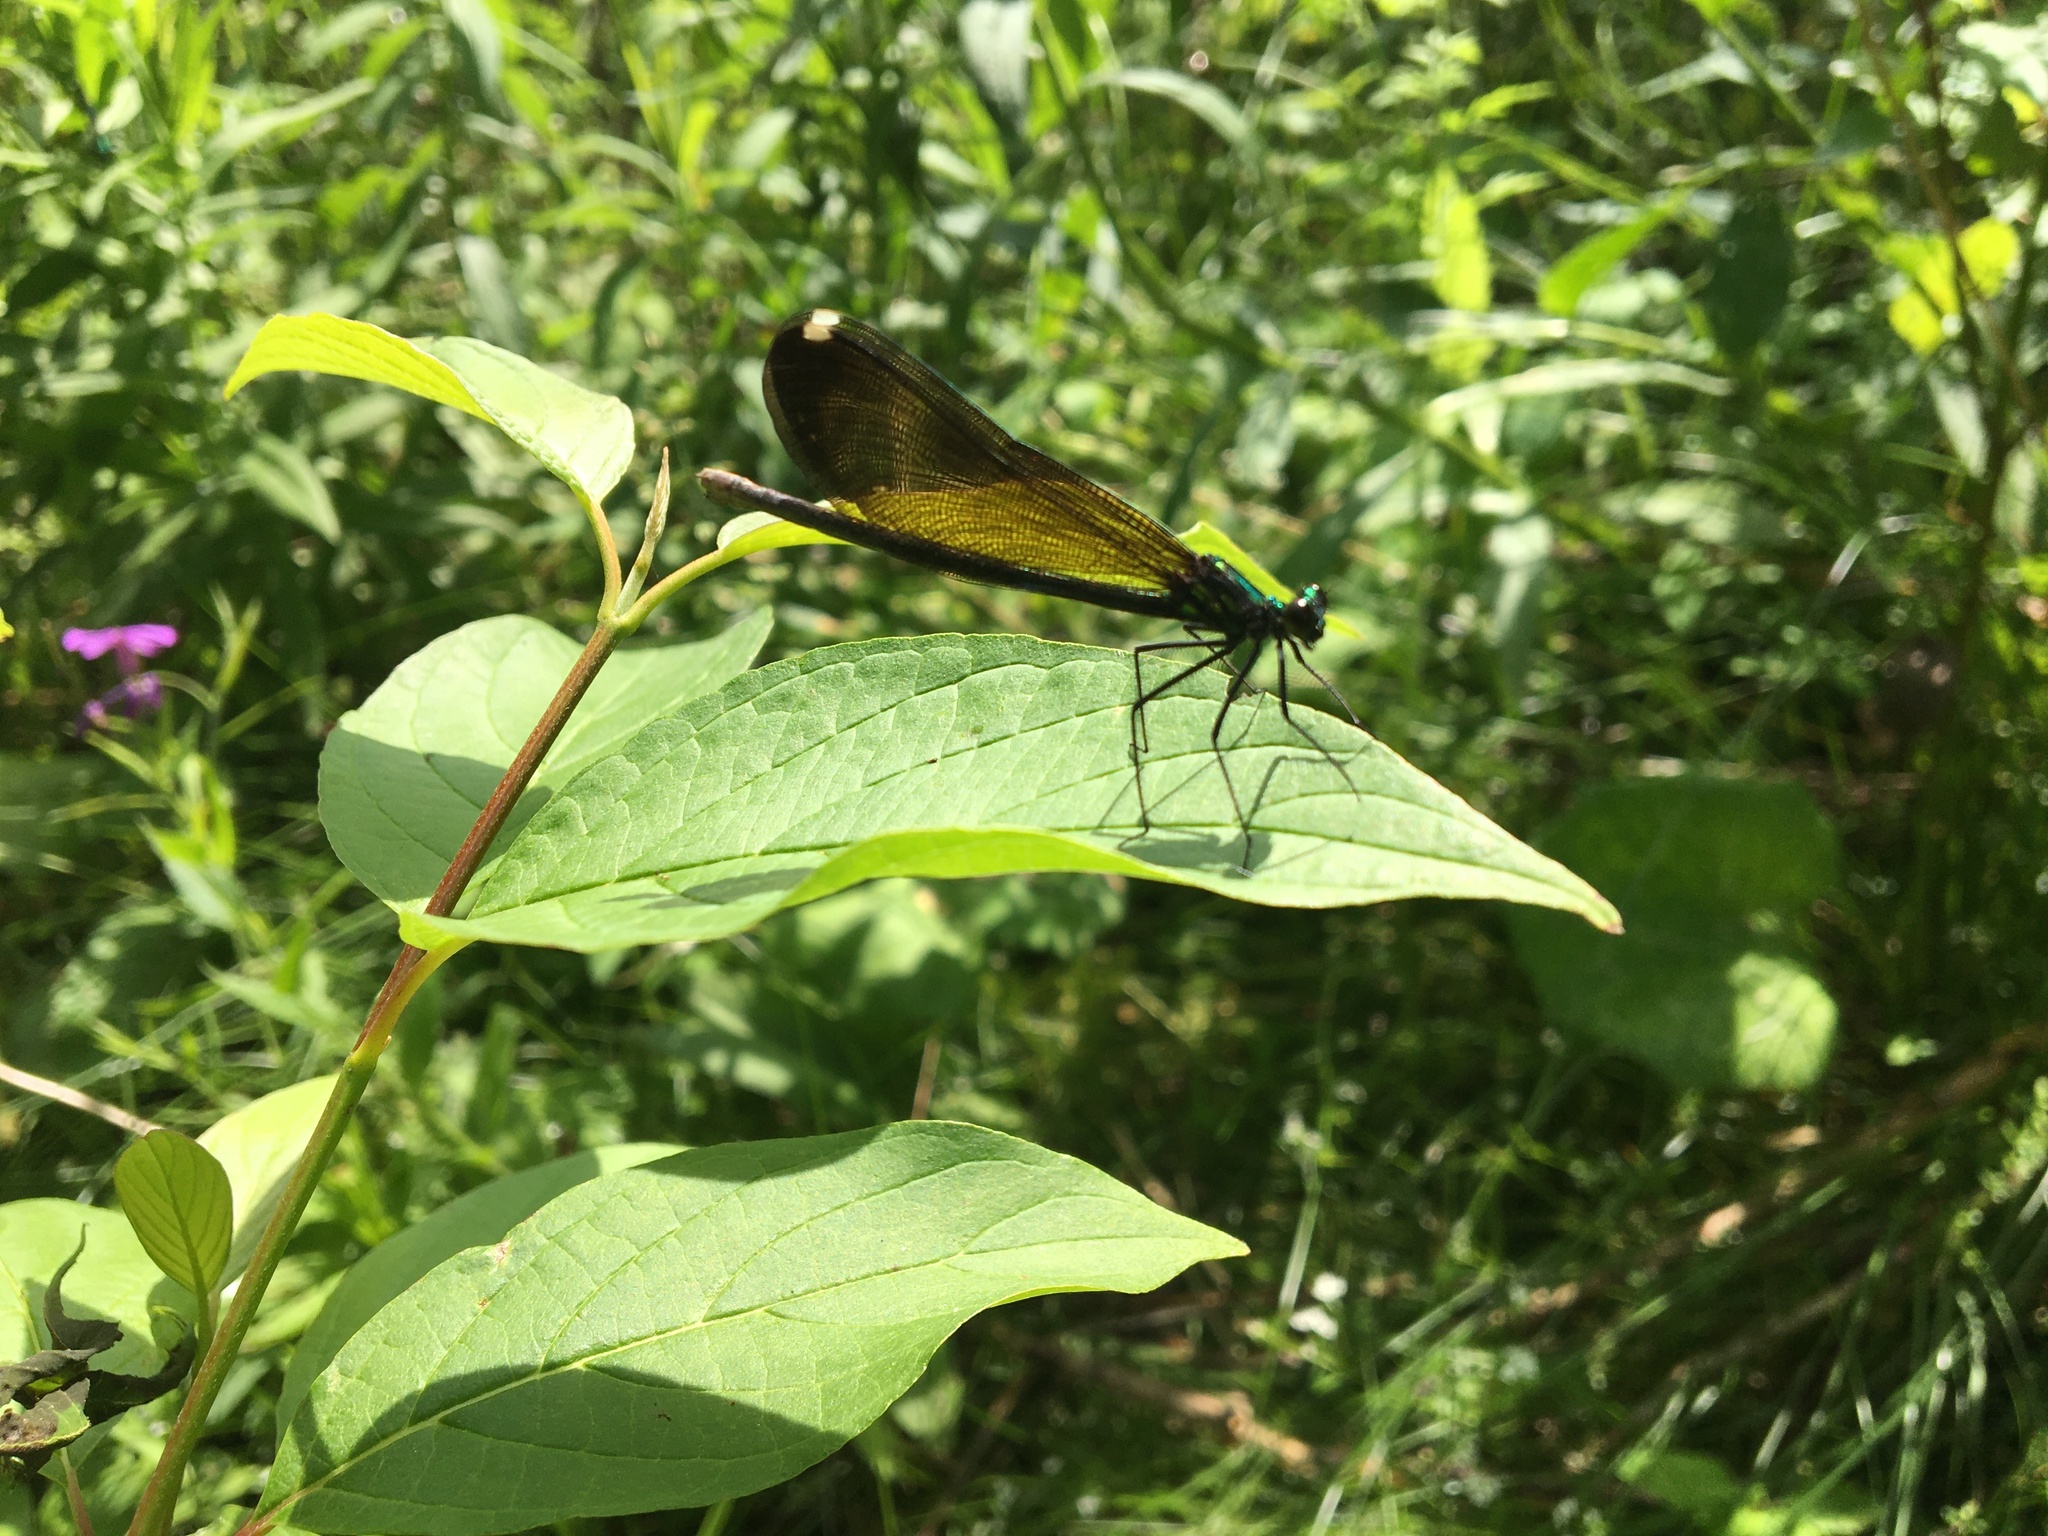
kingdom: Animalia
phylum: Arthropoda
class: Insecta
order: Odonata
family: Calopterygidae
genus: Calopteryx
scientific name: Calopteryx maculata
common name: Ebony jewelwing
